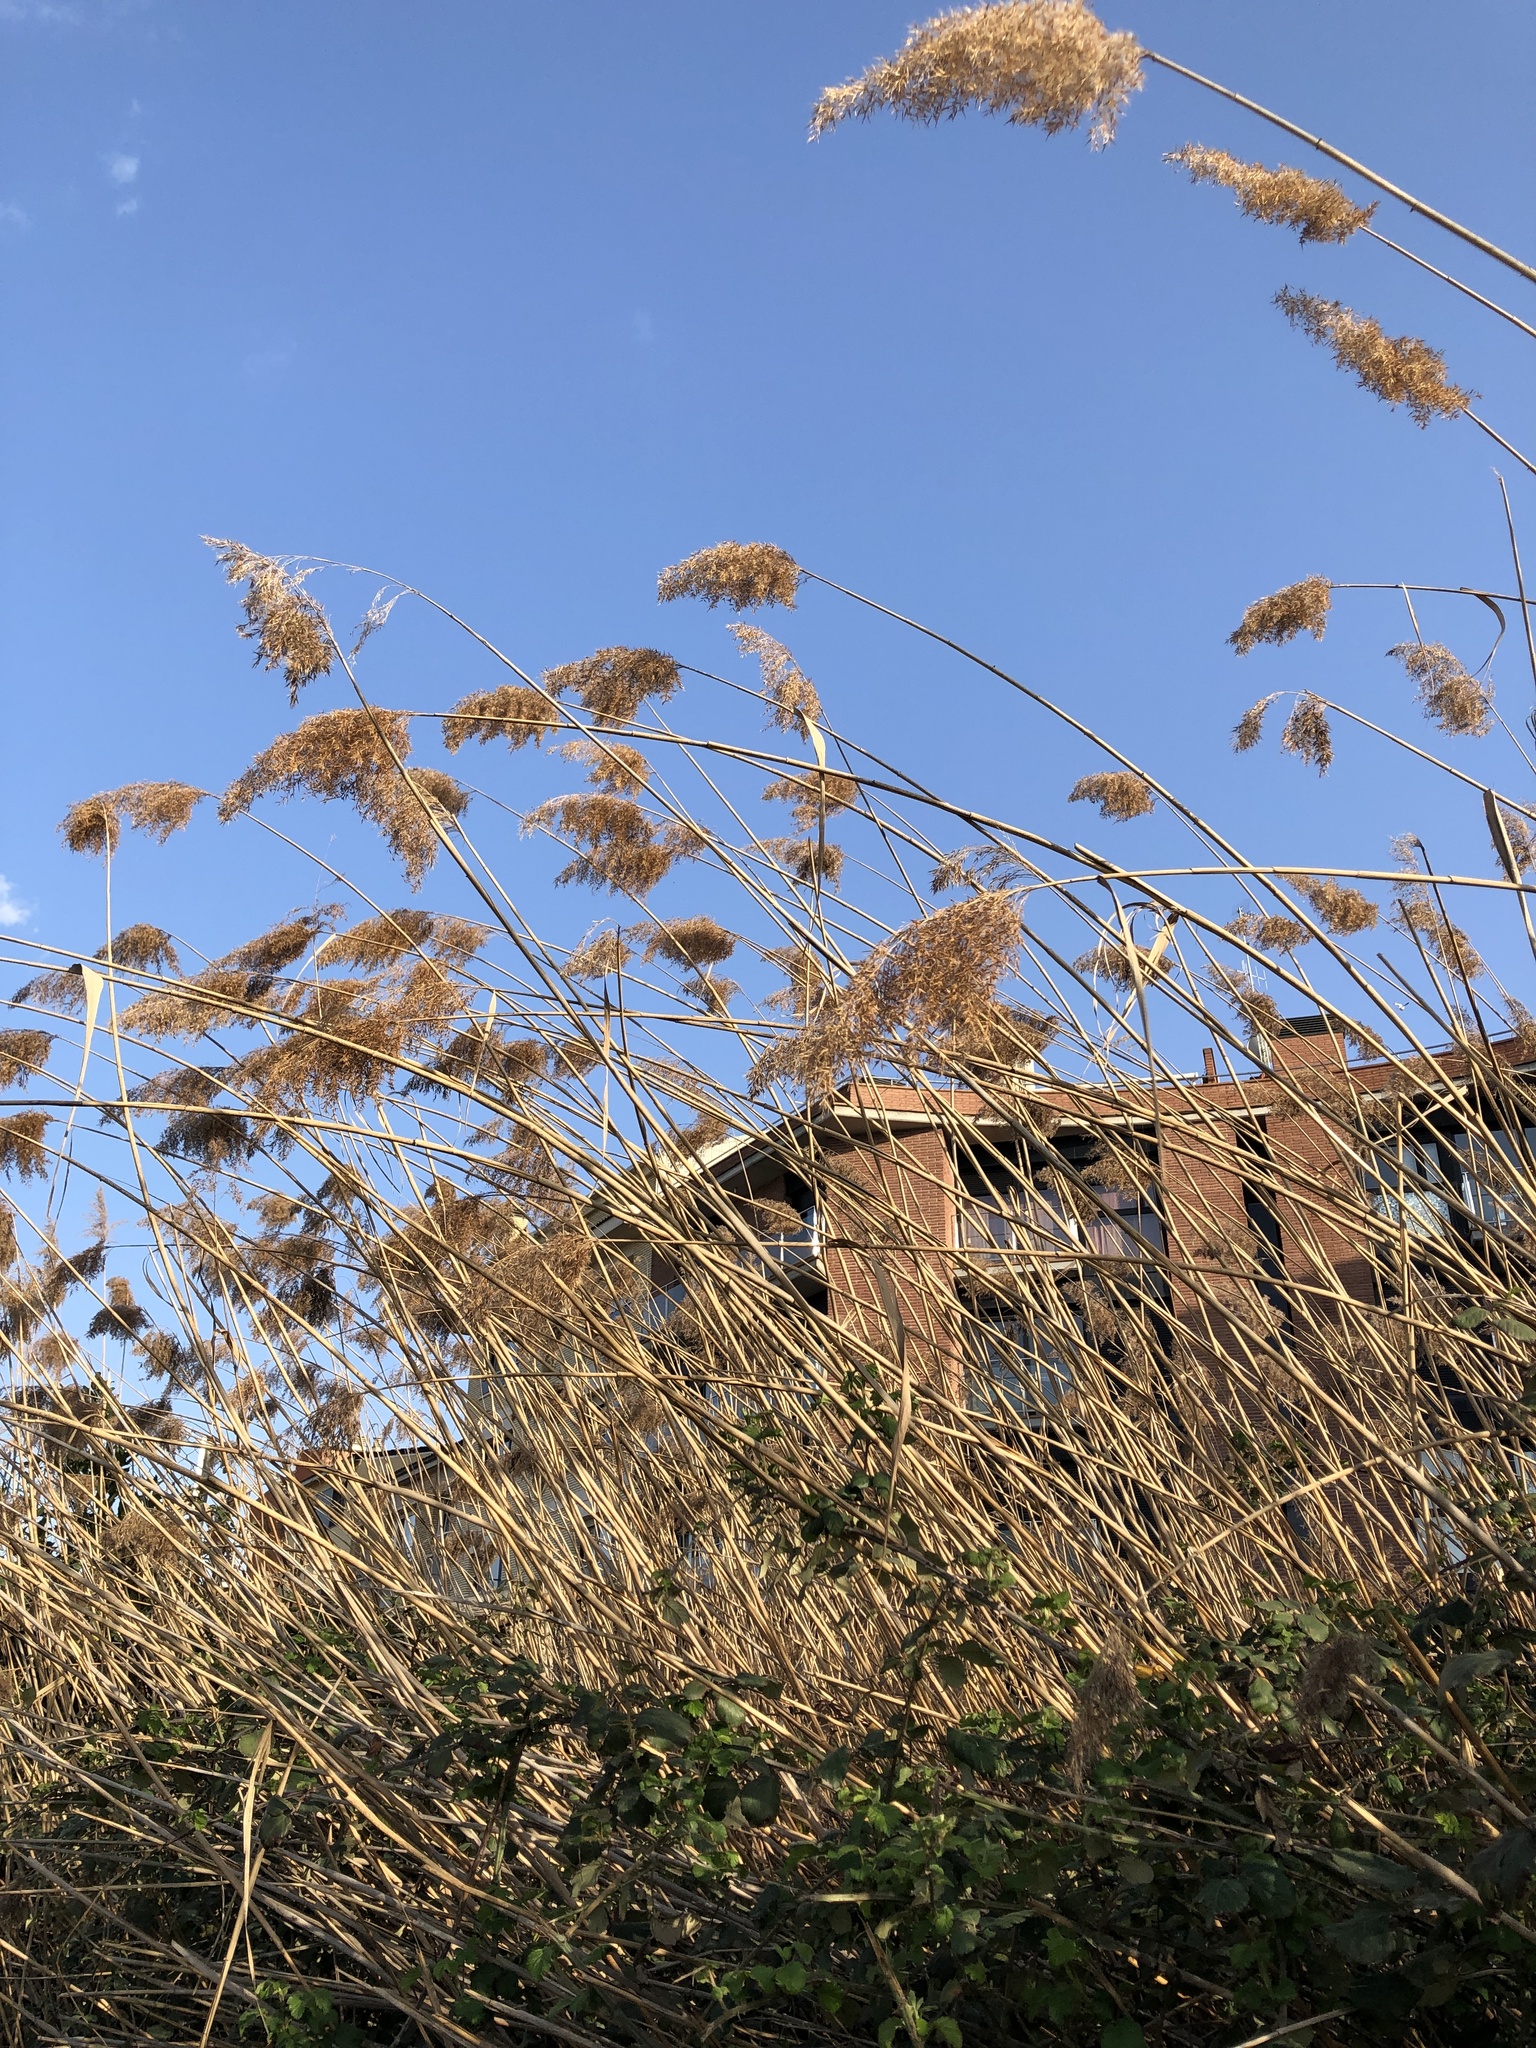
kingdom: Plantae
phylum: Tracheophyta
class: Liliopsida
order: Poales
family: Poaceae
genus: Phragmites
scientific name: Phragmites australis
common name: Common reed
